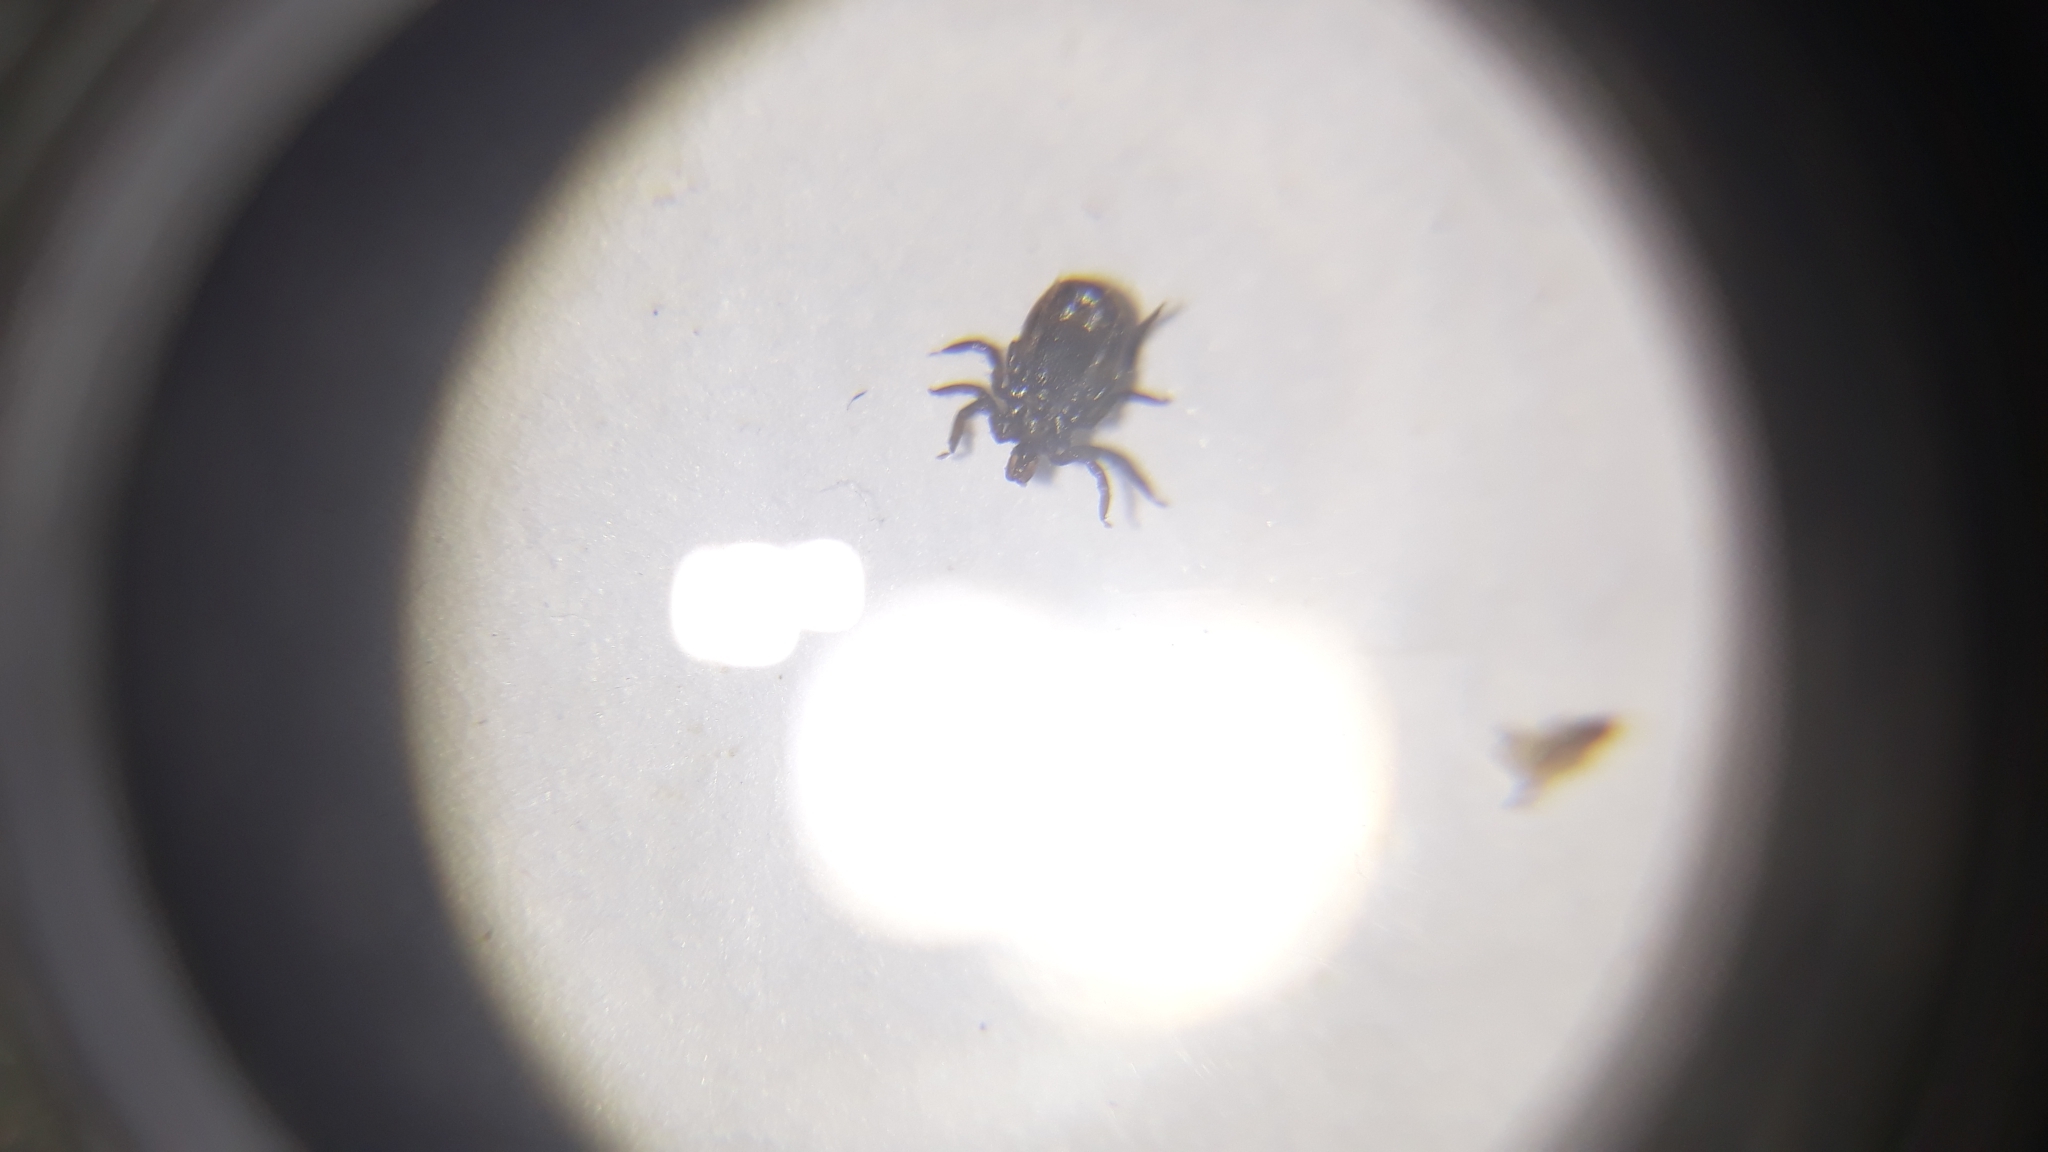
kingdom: Animalia
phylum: Arthropoda
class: Arachnida
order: Ixodida
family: Ixodidae
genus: Ixodes
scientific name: Ixodes ricinus
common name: Castor bean tick
